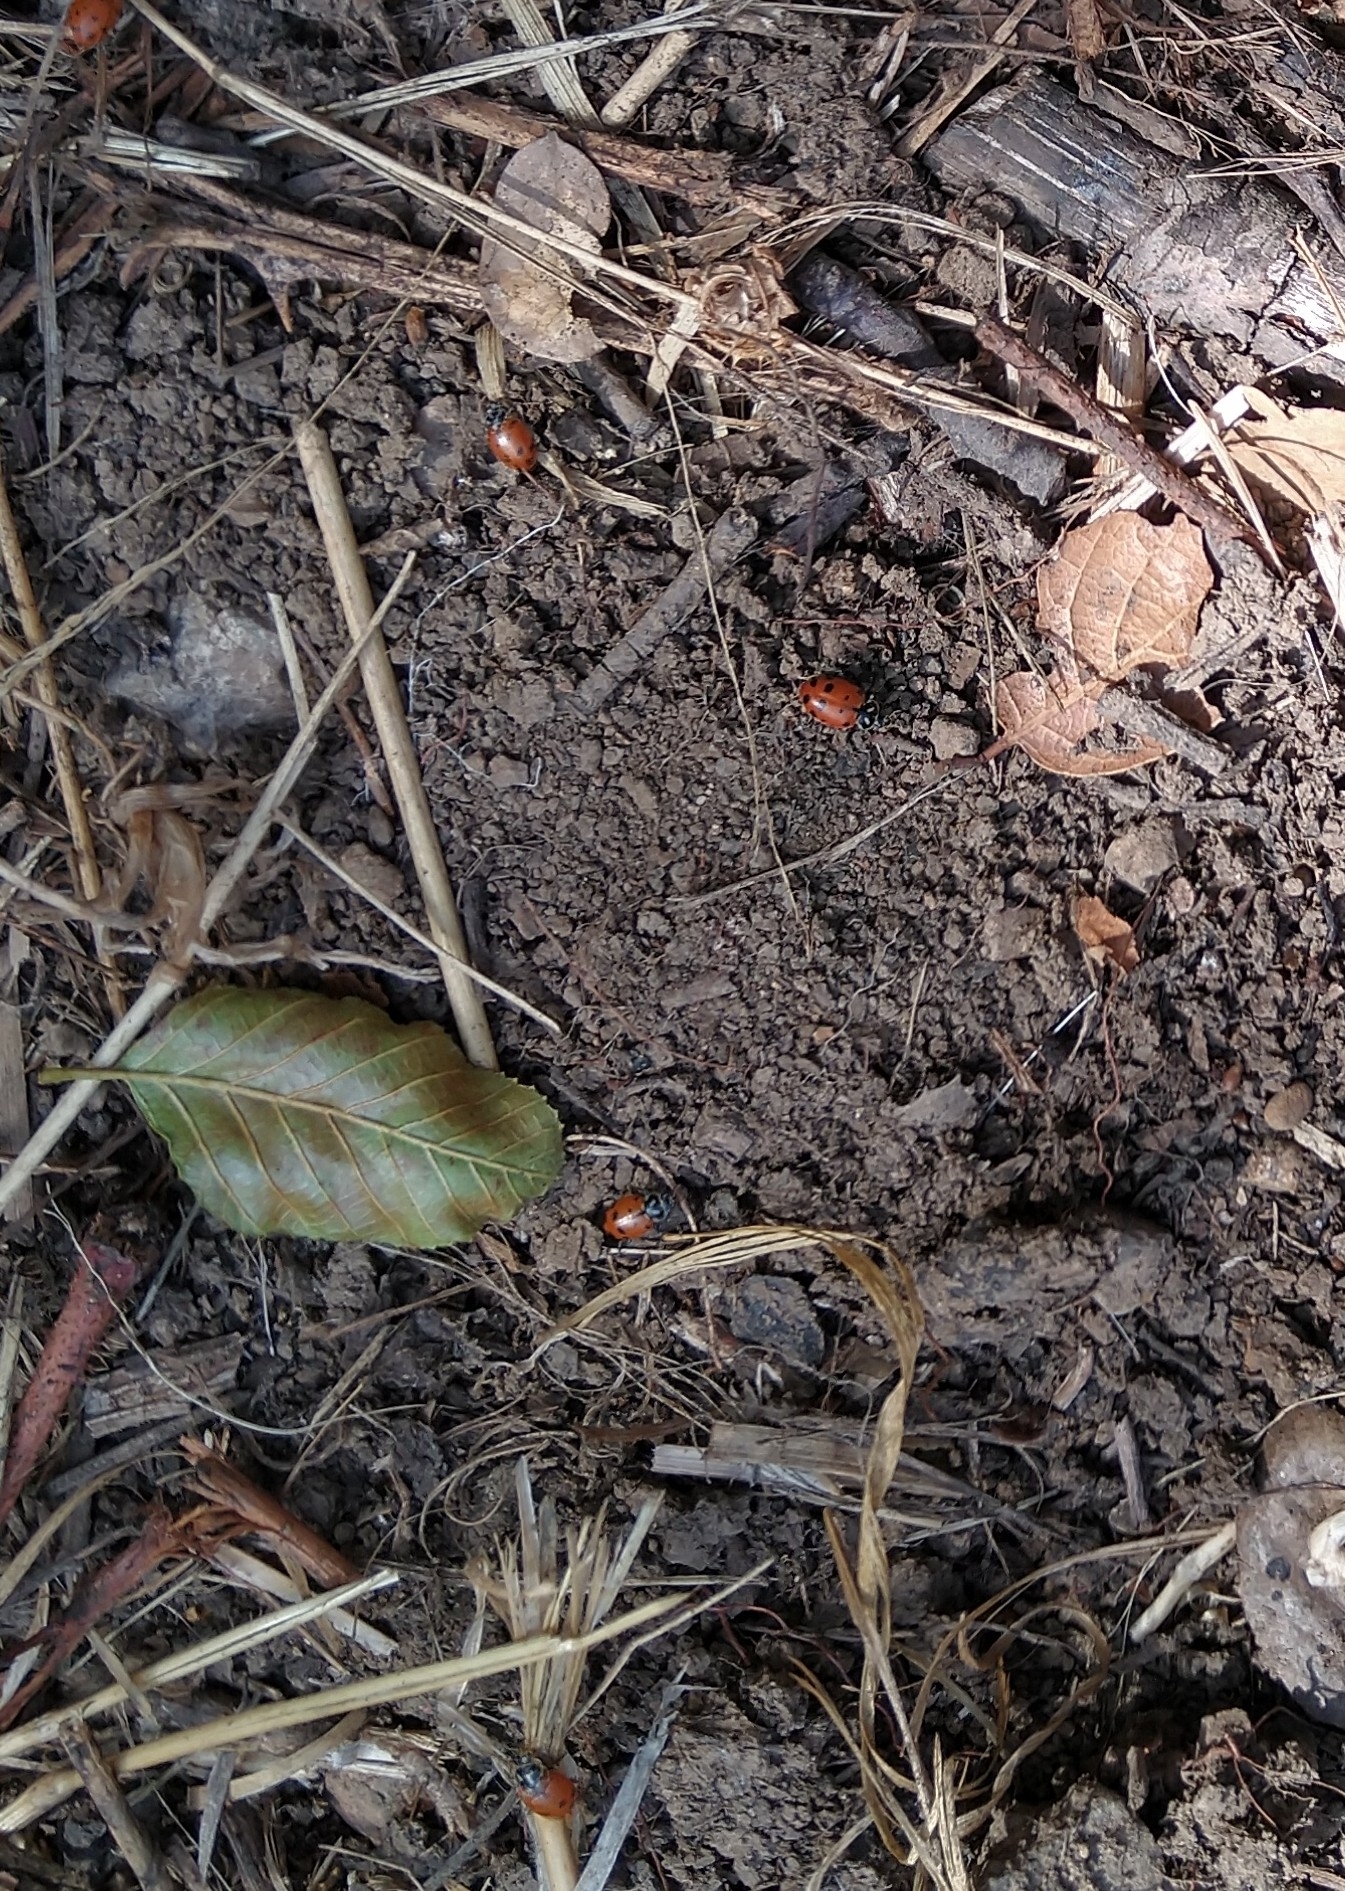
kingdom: Animalia
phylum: Arthropoda
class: Insecta
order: Coleoptera
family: Coccinellidae
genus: Hippodamia
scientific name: Hippodamia convergens
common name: Convergent lady beetle
